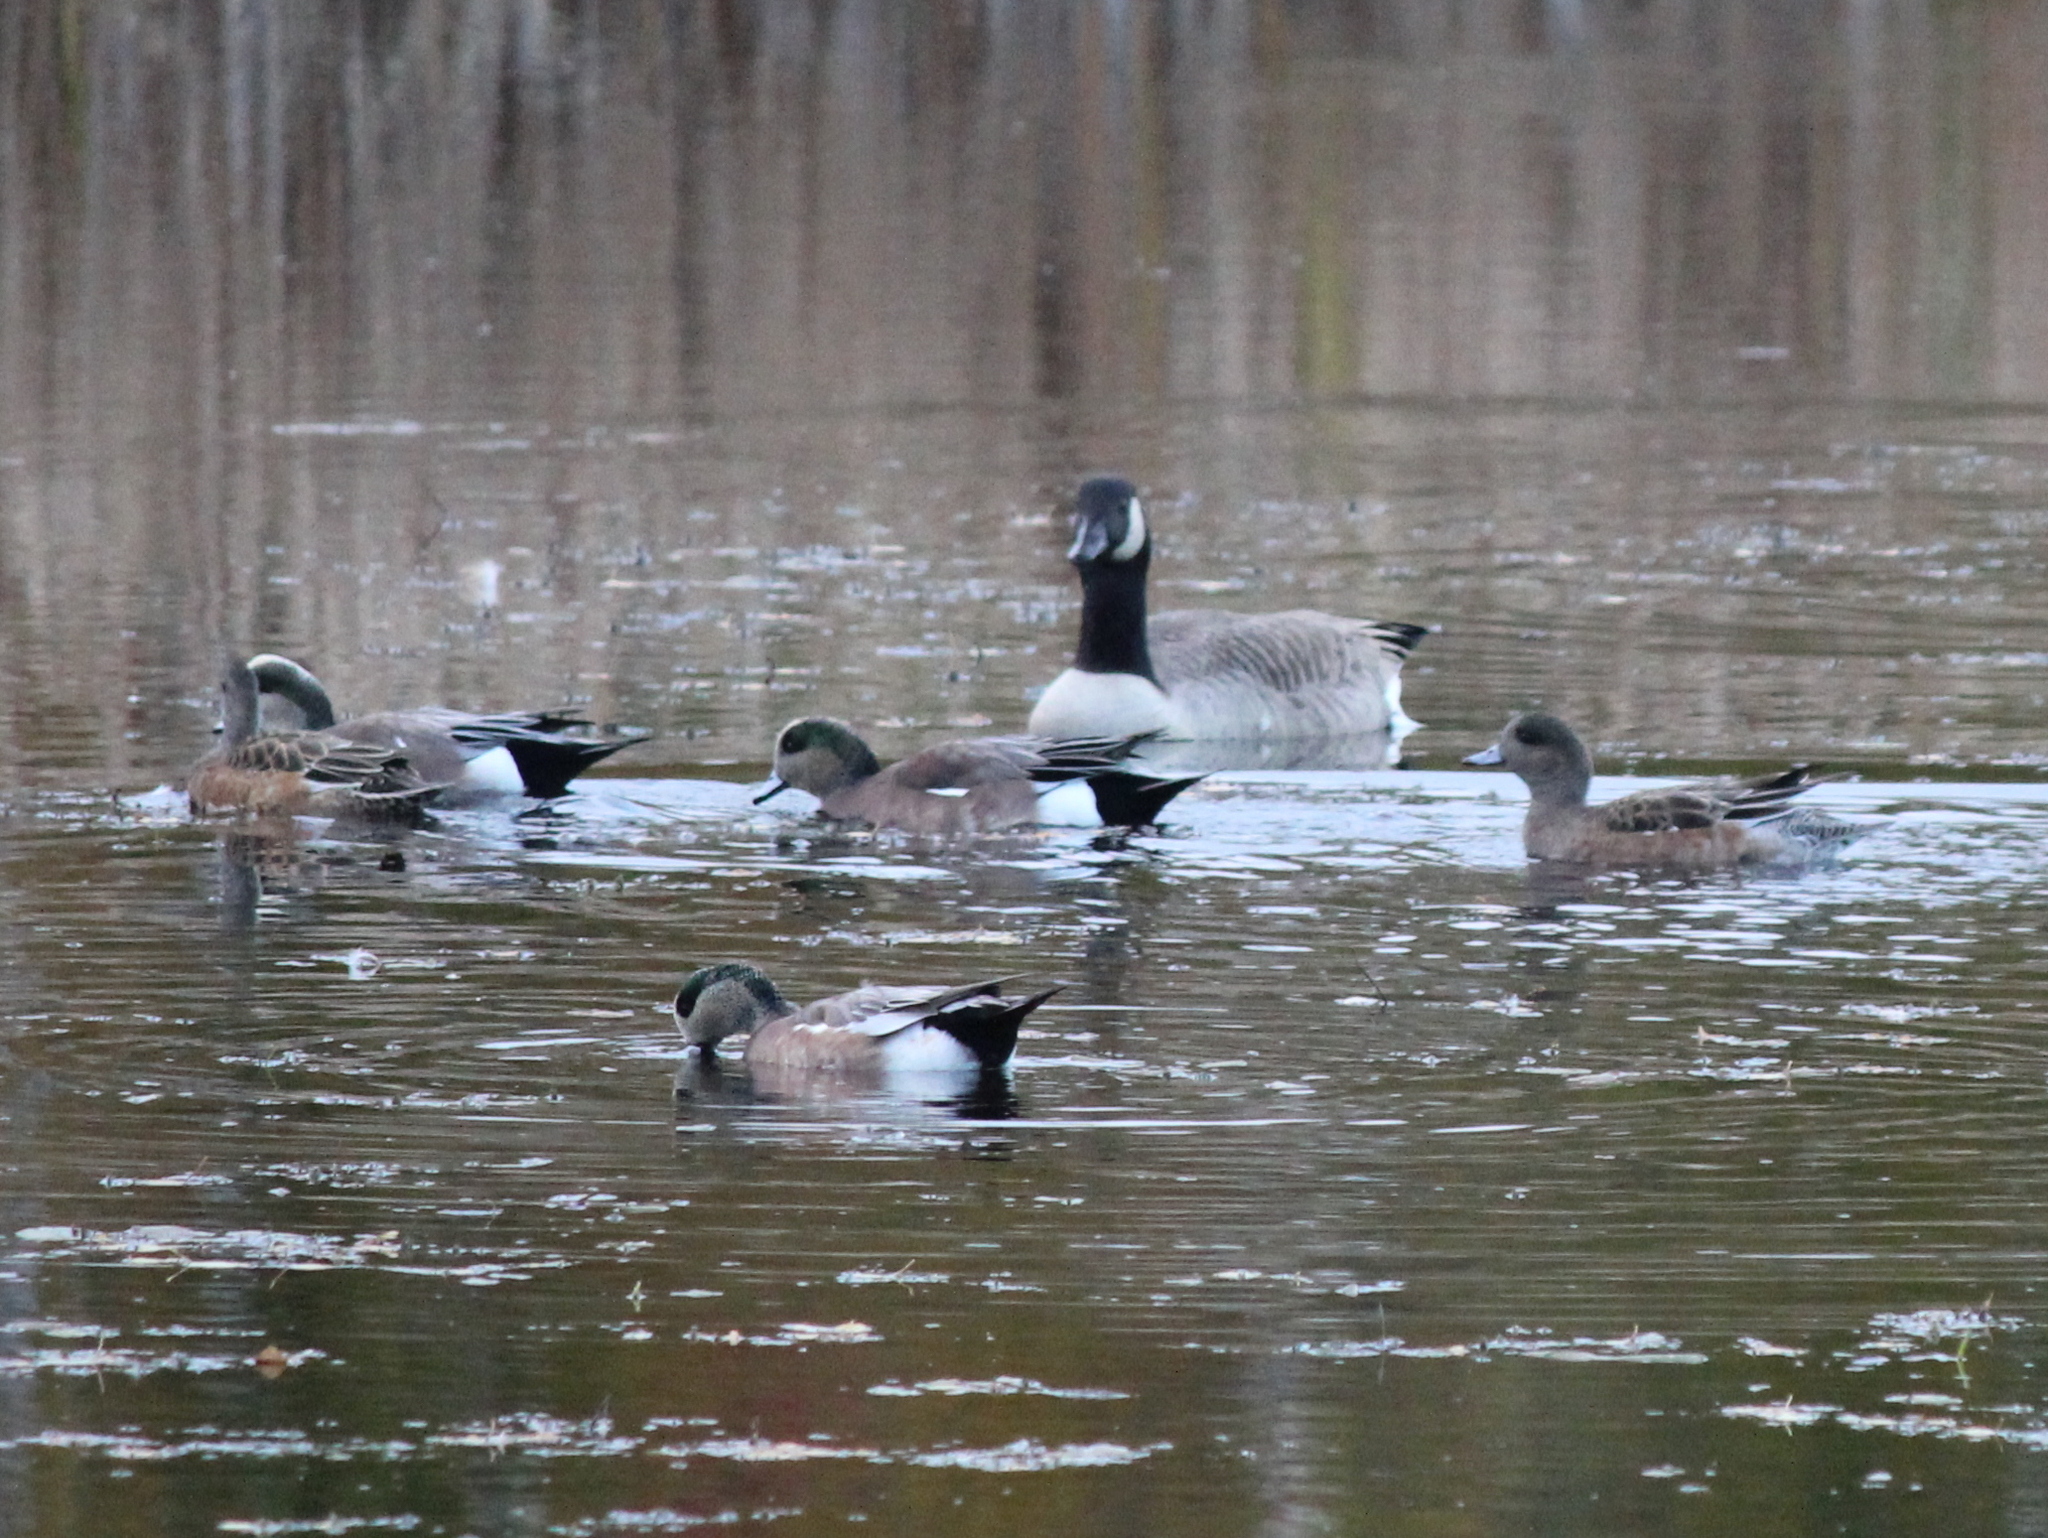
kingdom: Animalia
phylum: Chordata
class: Aves
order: Anseriformes
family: Anatidae
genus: Mareca
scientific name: Mareca americana
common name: American wigeon
